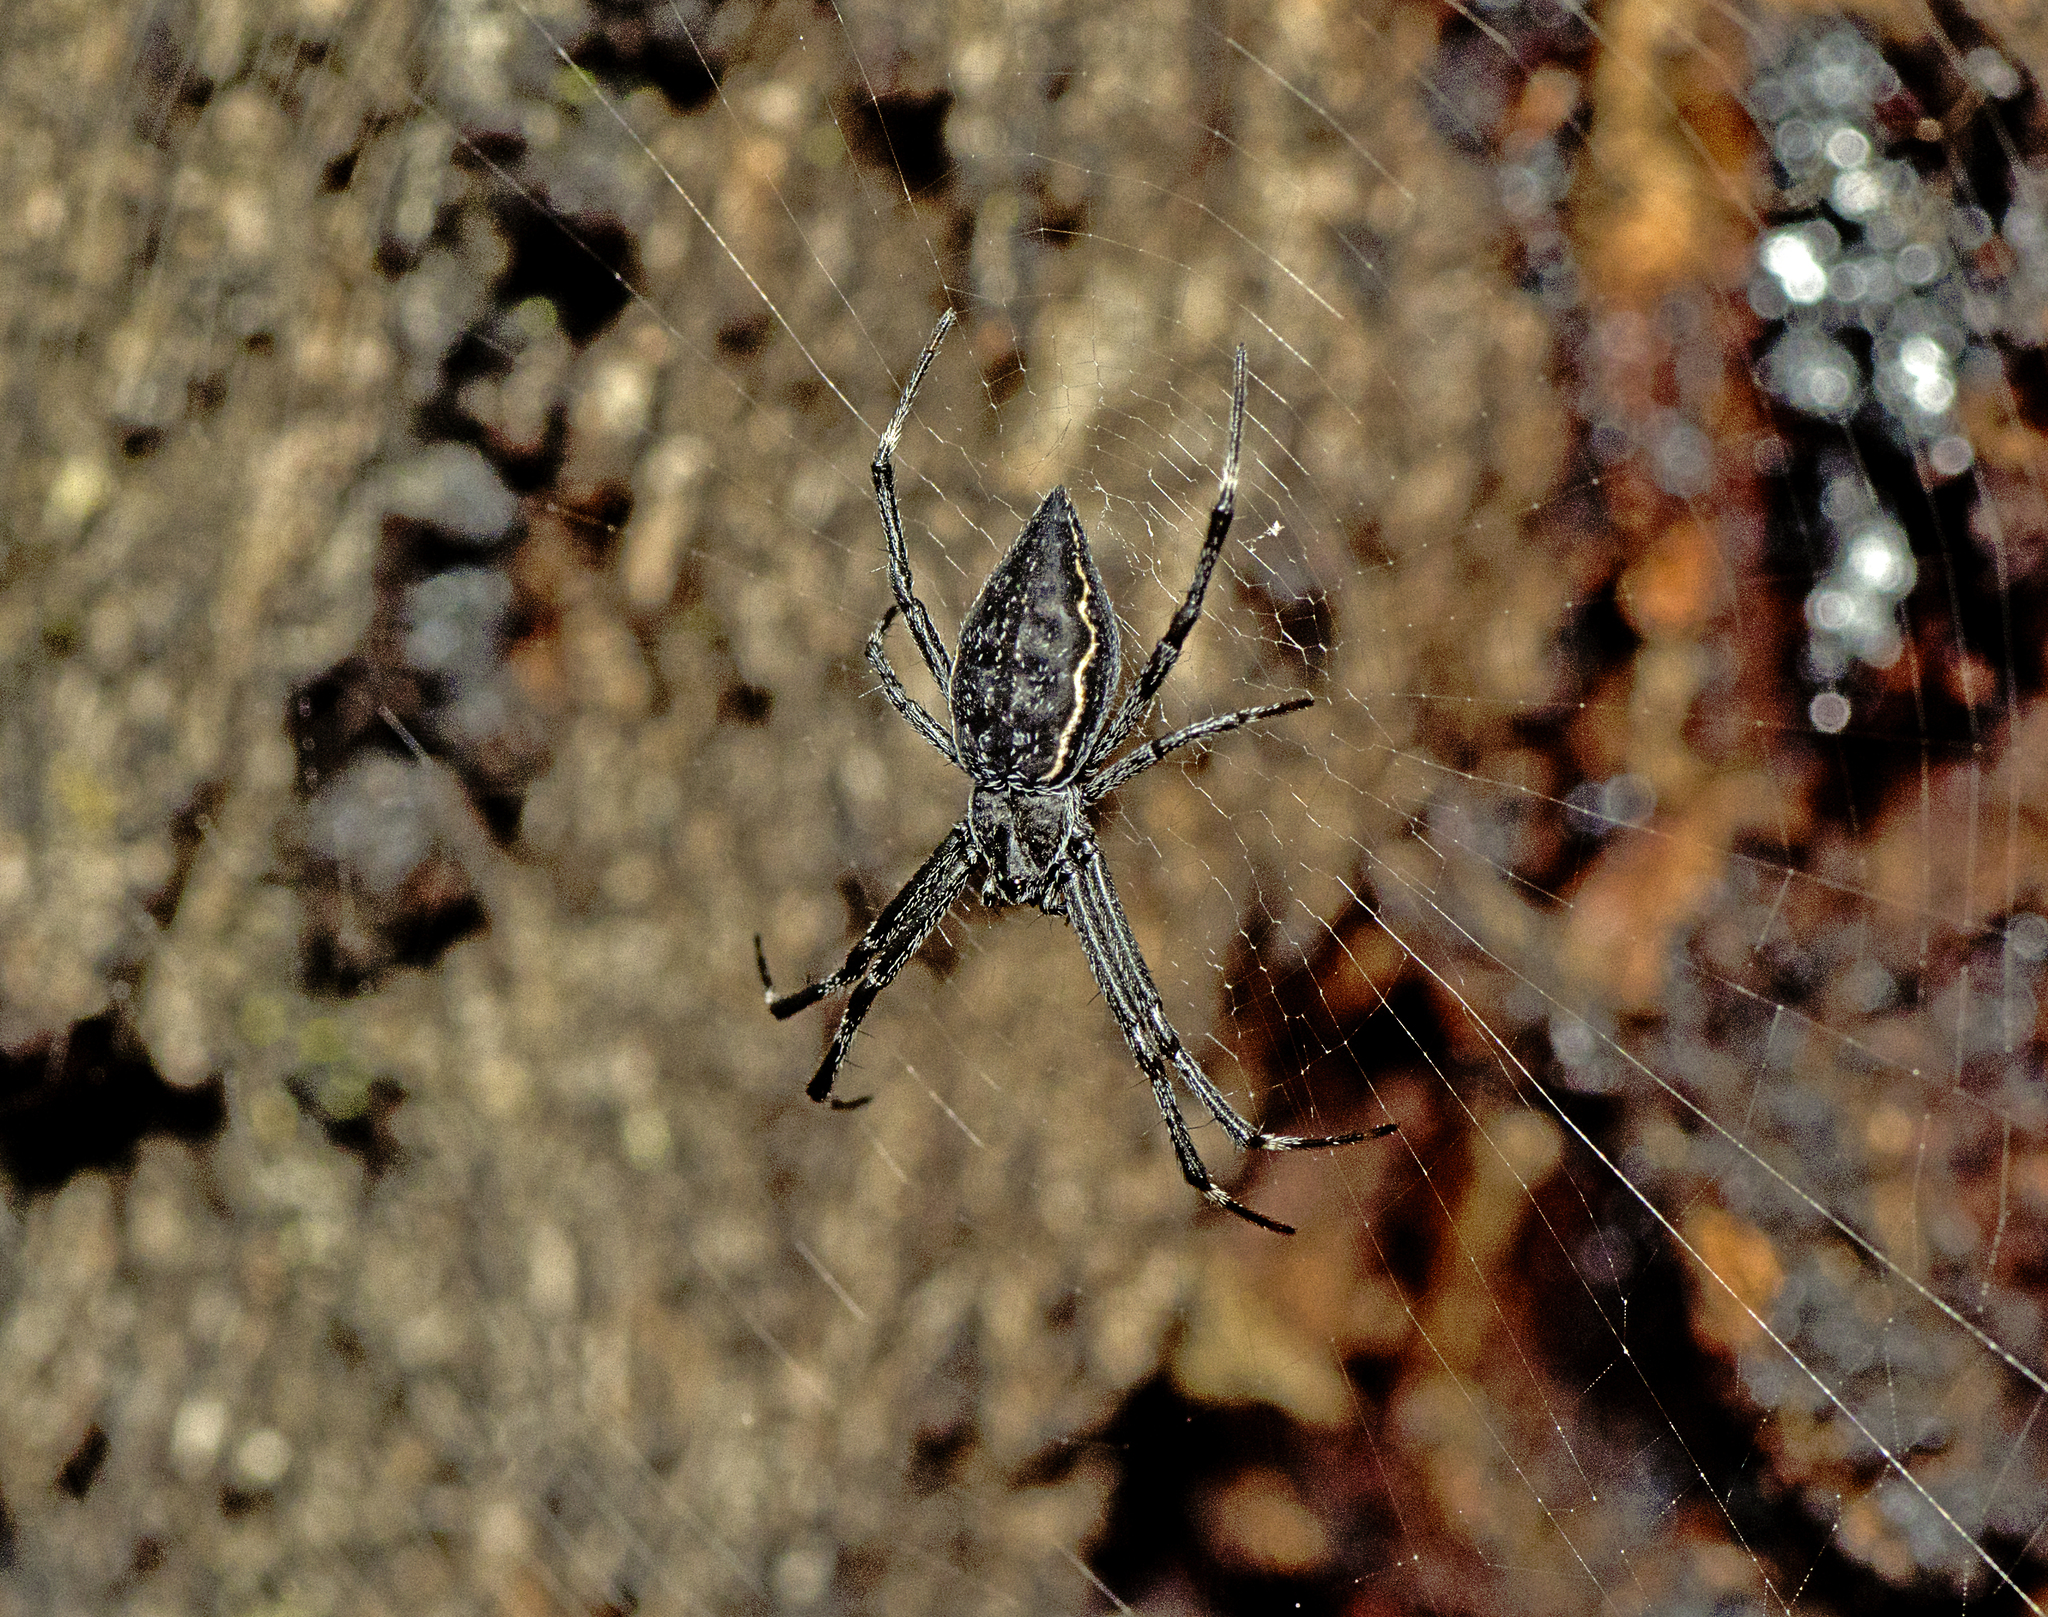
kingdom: Animalia
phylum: Arthropoda
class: Arachnida
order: Araneae
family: Araneidae
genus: Argiope
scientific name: Argiope ocyaloides
